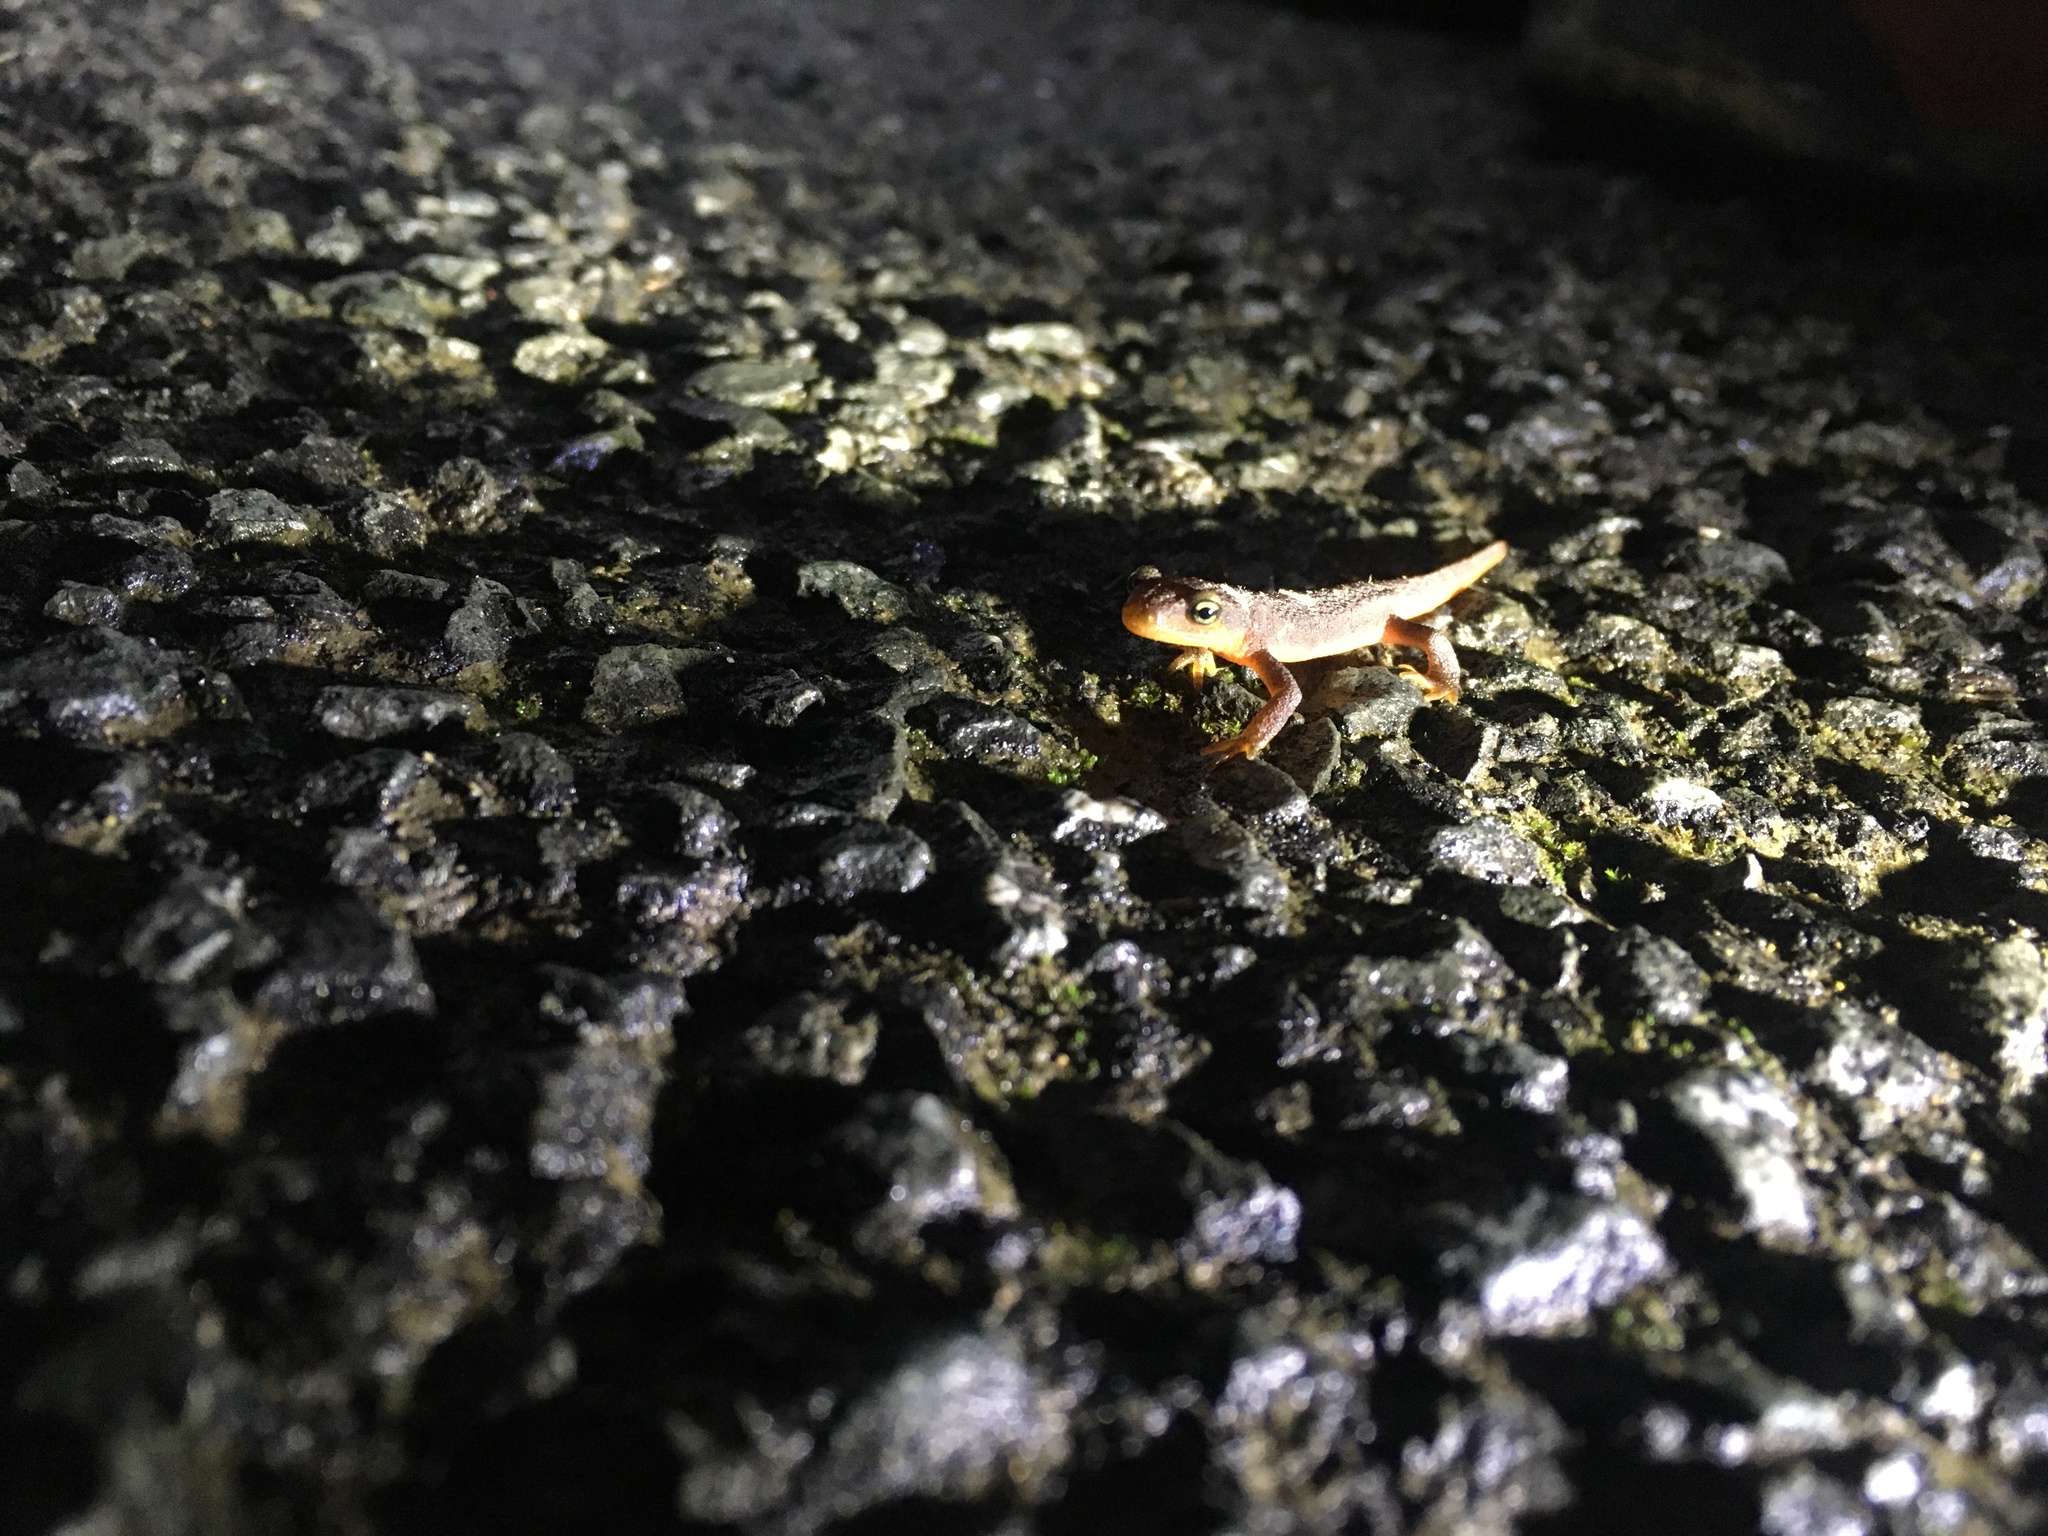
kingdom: Animalia
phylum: Chordata
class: Amphibia
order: Caudata
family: Salamandridae
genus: Taricha
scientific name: Taricha torosa
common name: California newt
